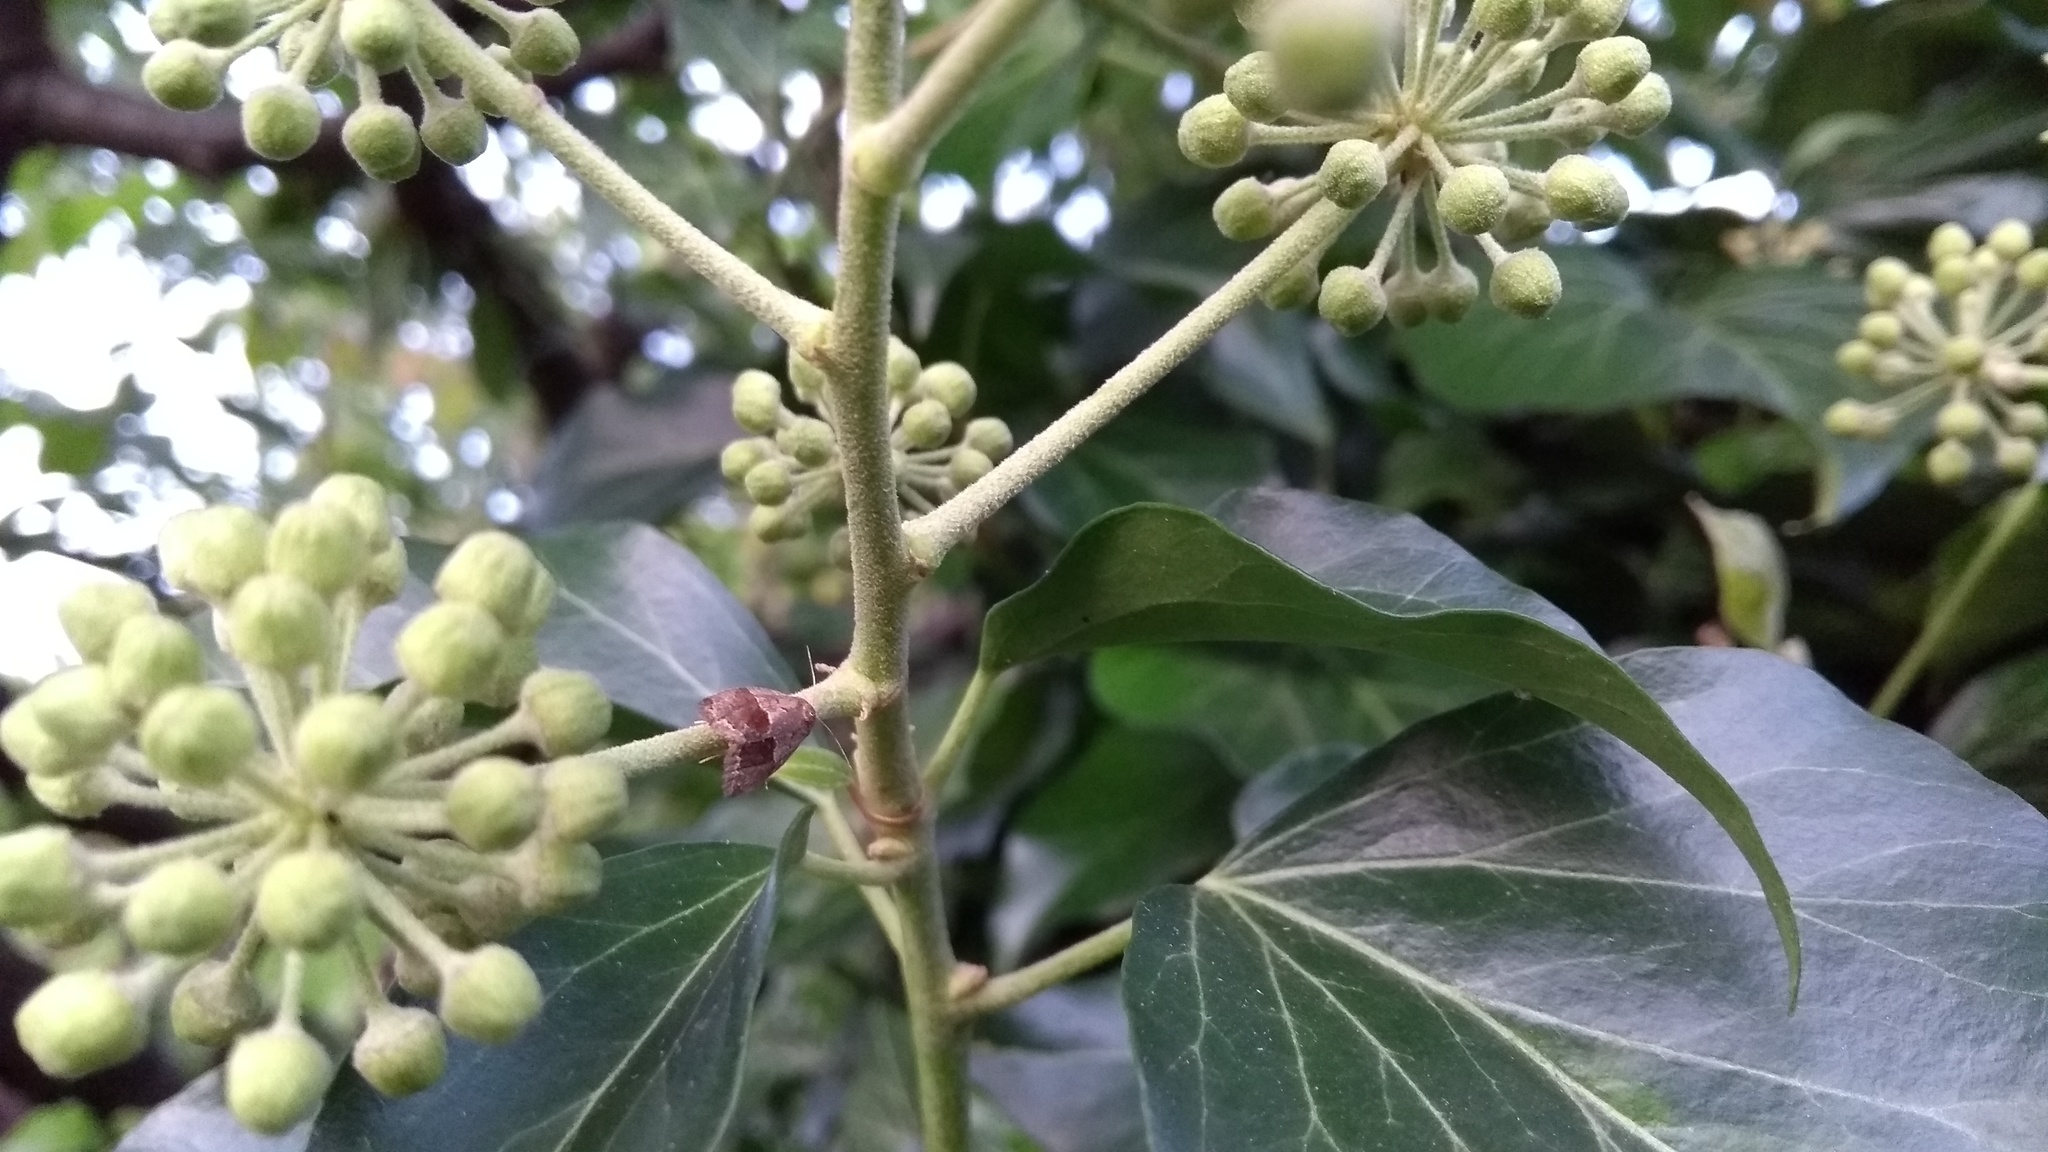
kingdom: Animalia
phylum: Arthropoda
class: Insecta
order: Lepidoptera
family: Tortricidae
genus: Clepsis
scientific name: Clepsis dumicolana
